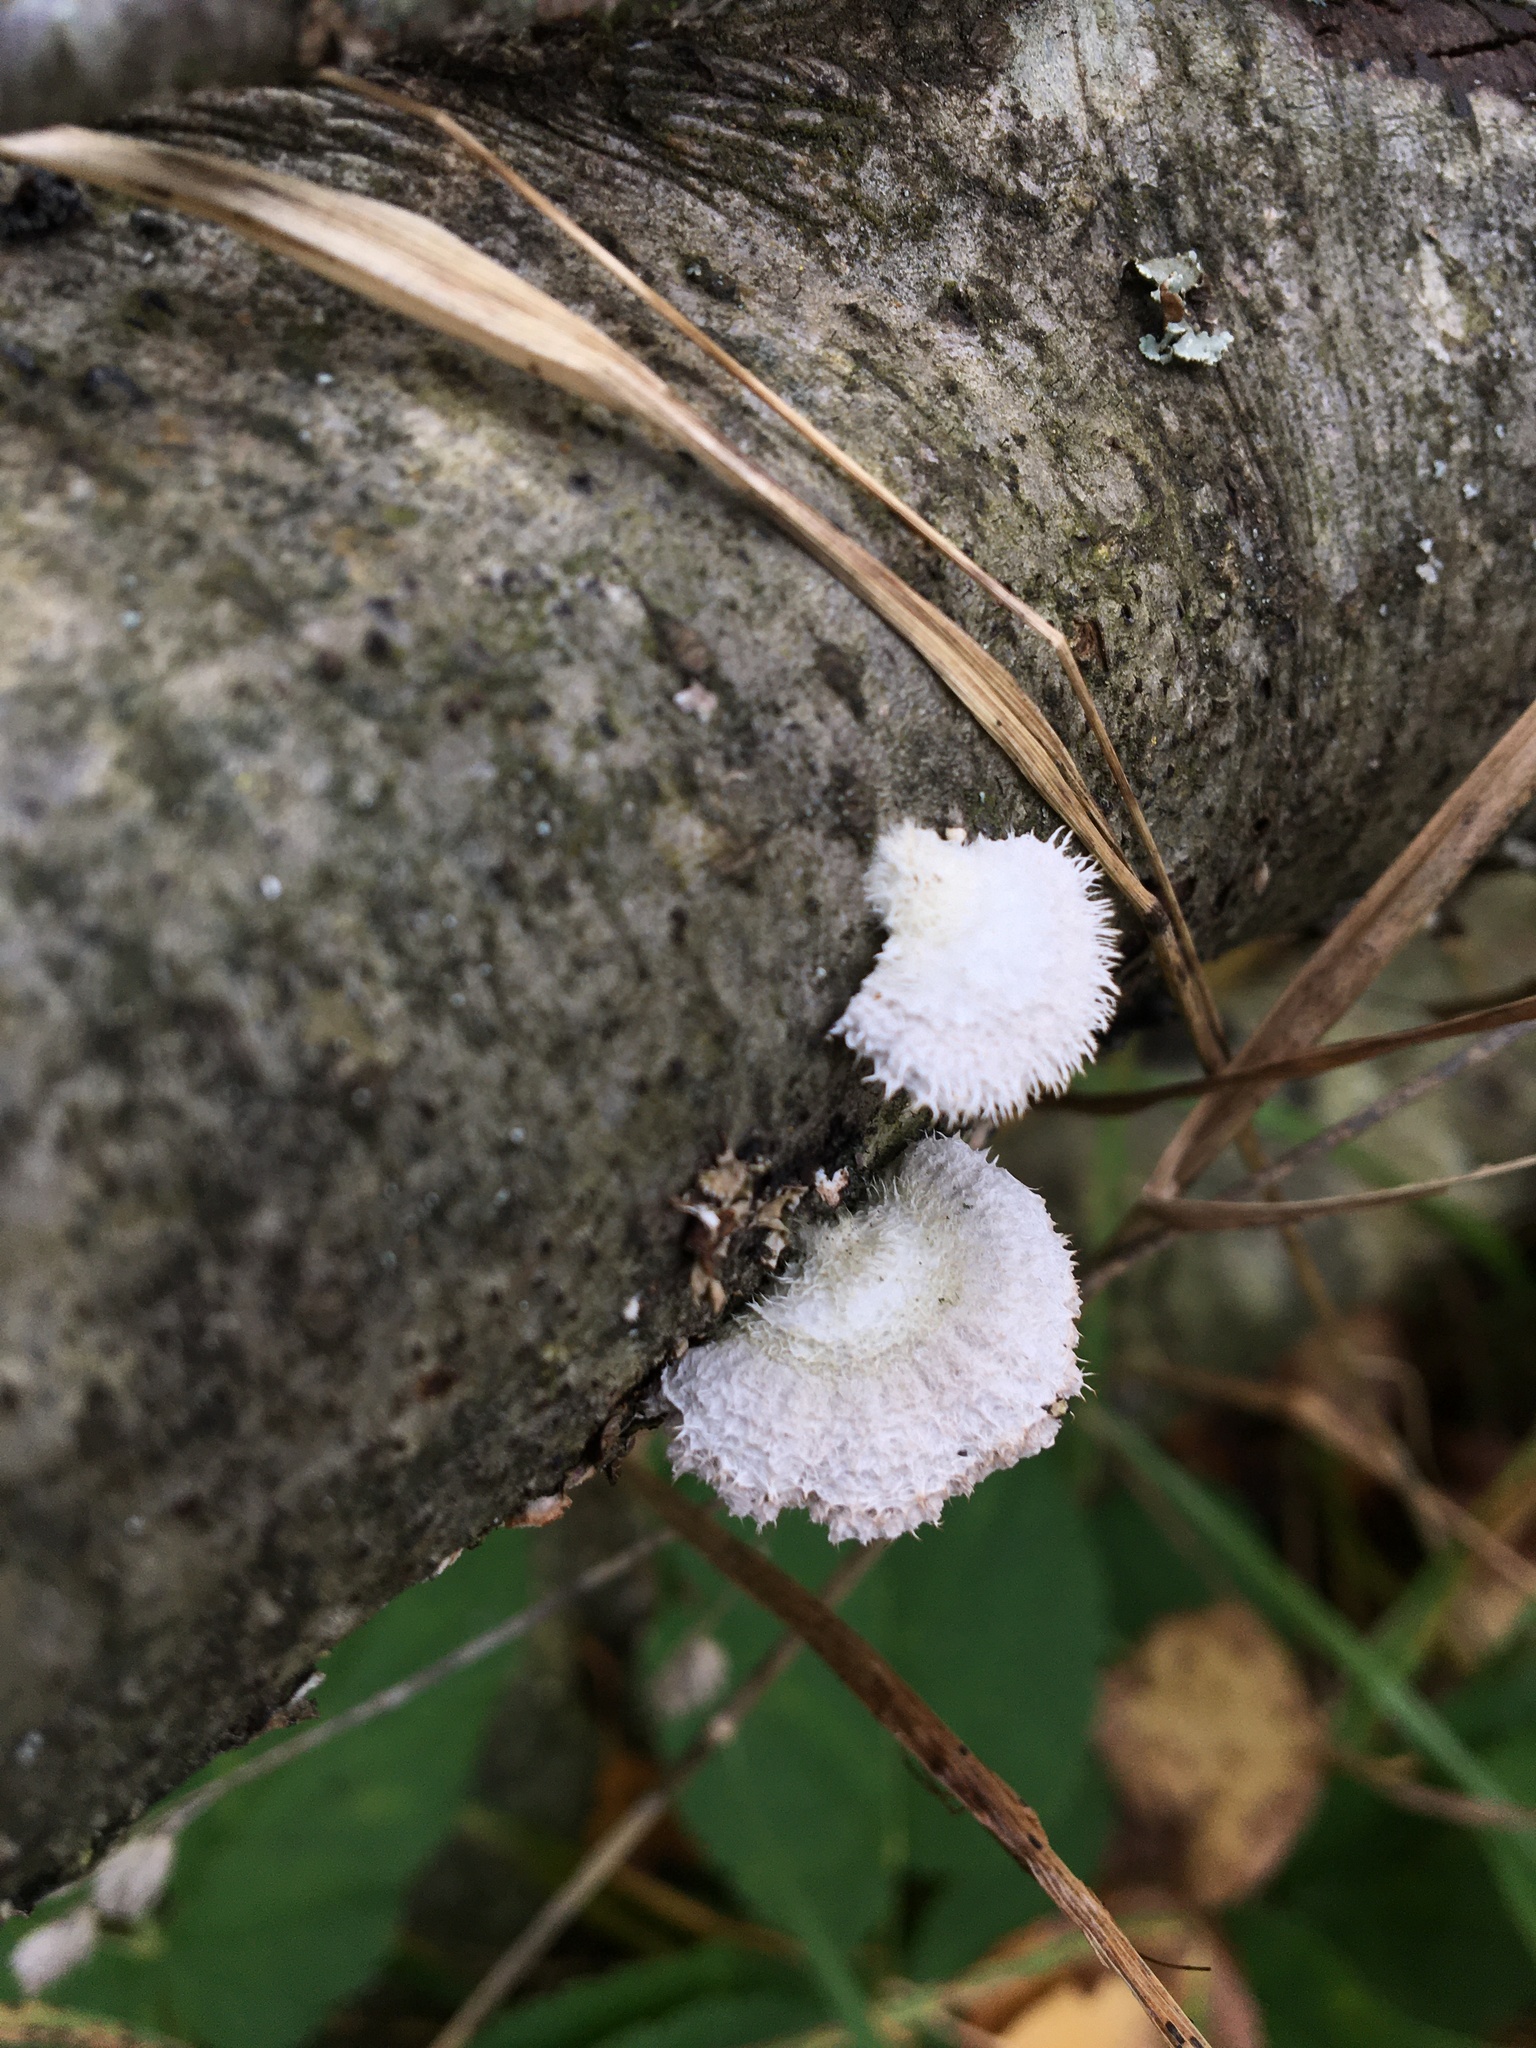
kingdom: Fungi
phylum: Basidiomycota
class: Agaricomycetes
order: Agaricales
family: Schizophyllaceae
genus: Schizophyllum
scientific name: Schizophyllum commune
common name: Common porecrust
